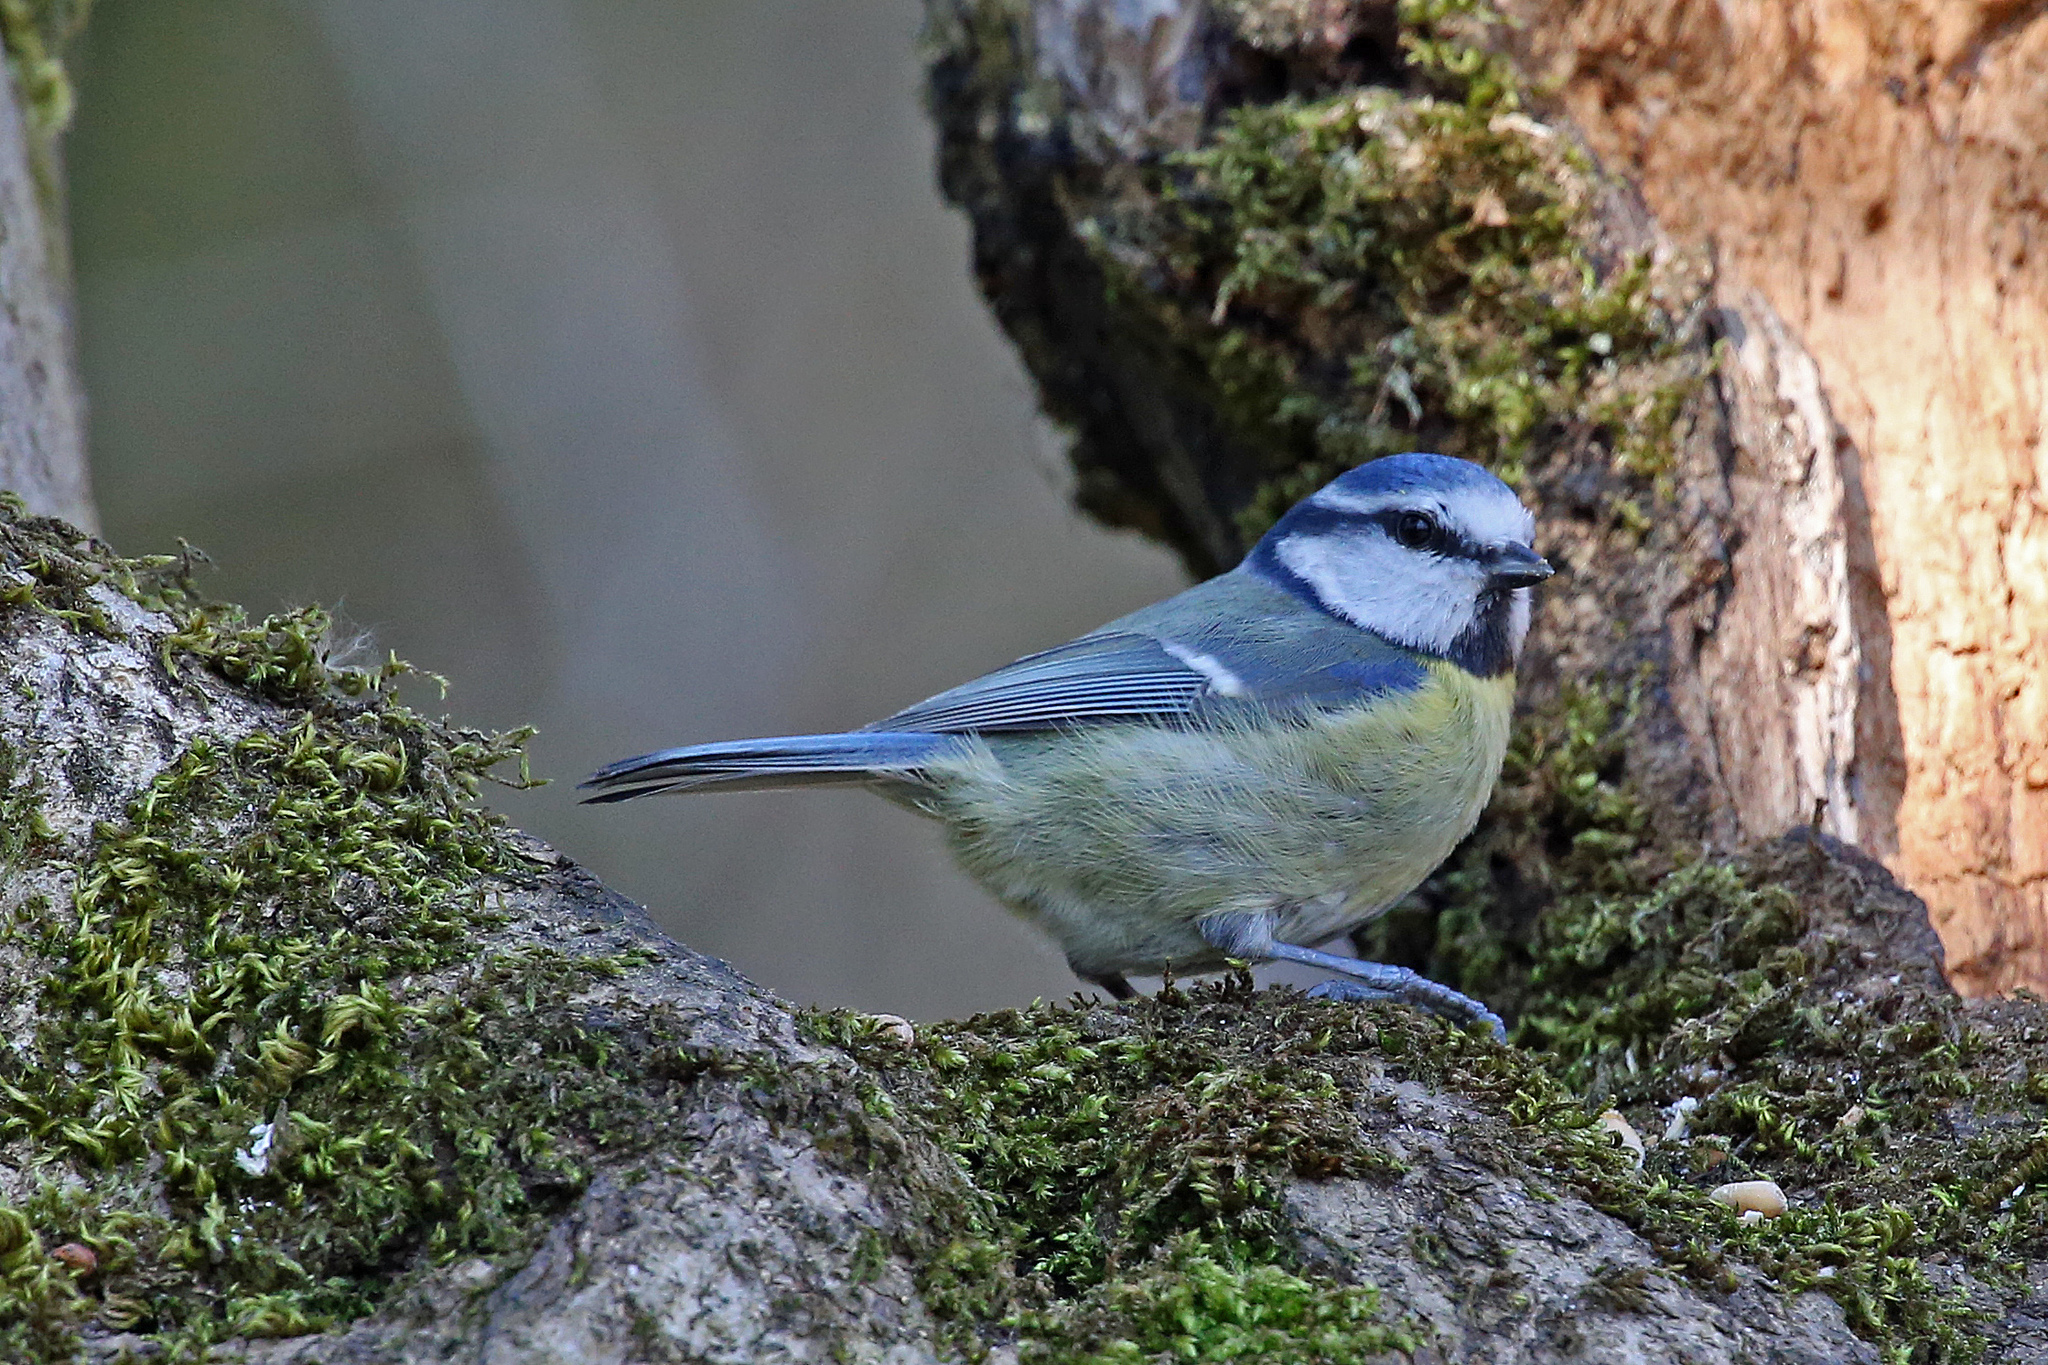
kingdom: Animalia
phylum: Chordata
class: Aves
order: Passeriformes
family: Paridae
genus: Cyanistes
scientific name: Cyanistes caeruleus
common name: Eurasian blue tit
